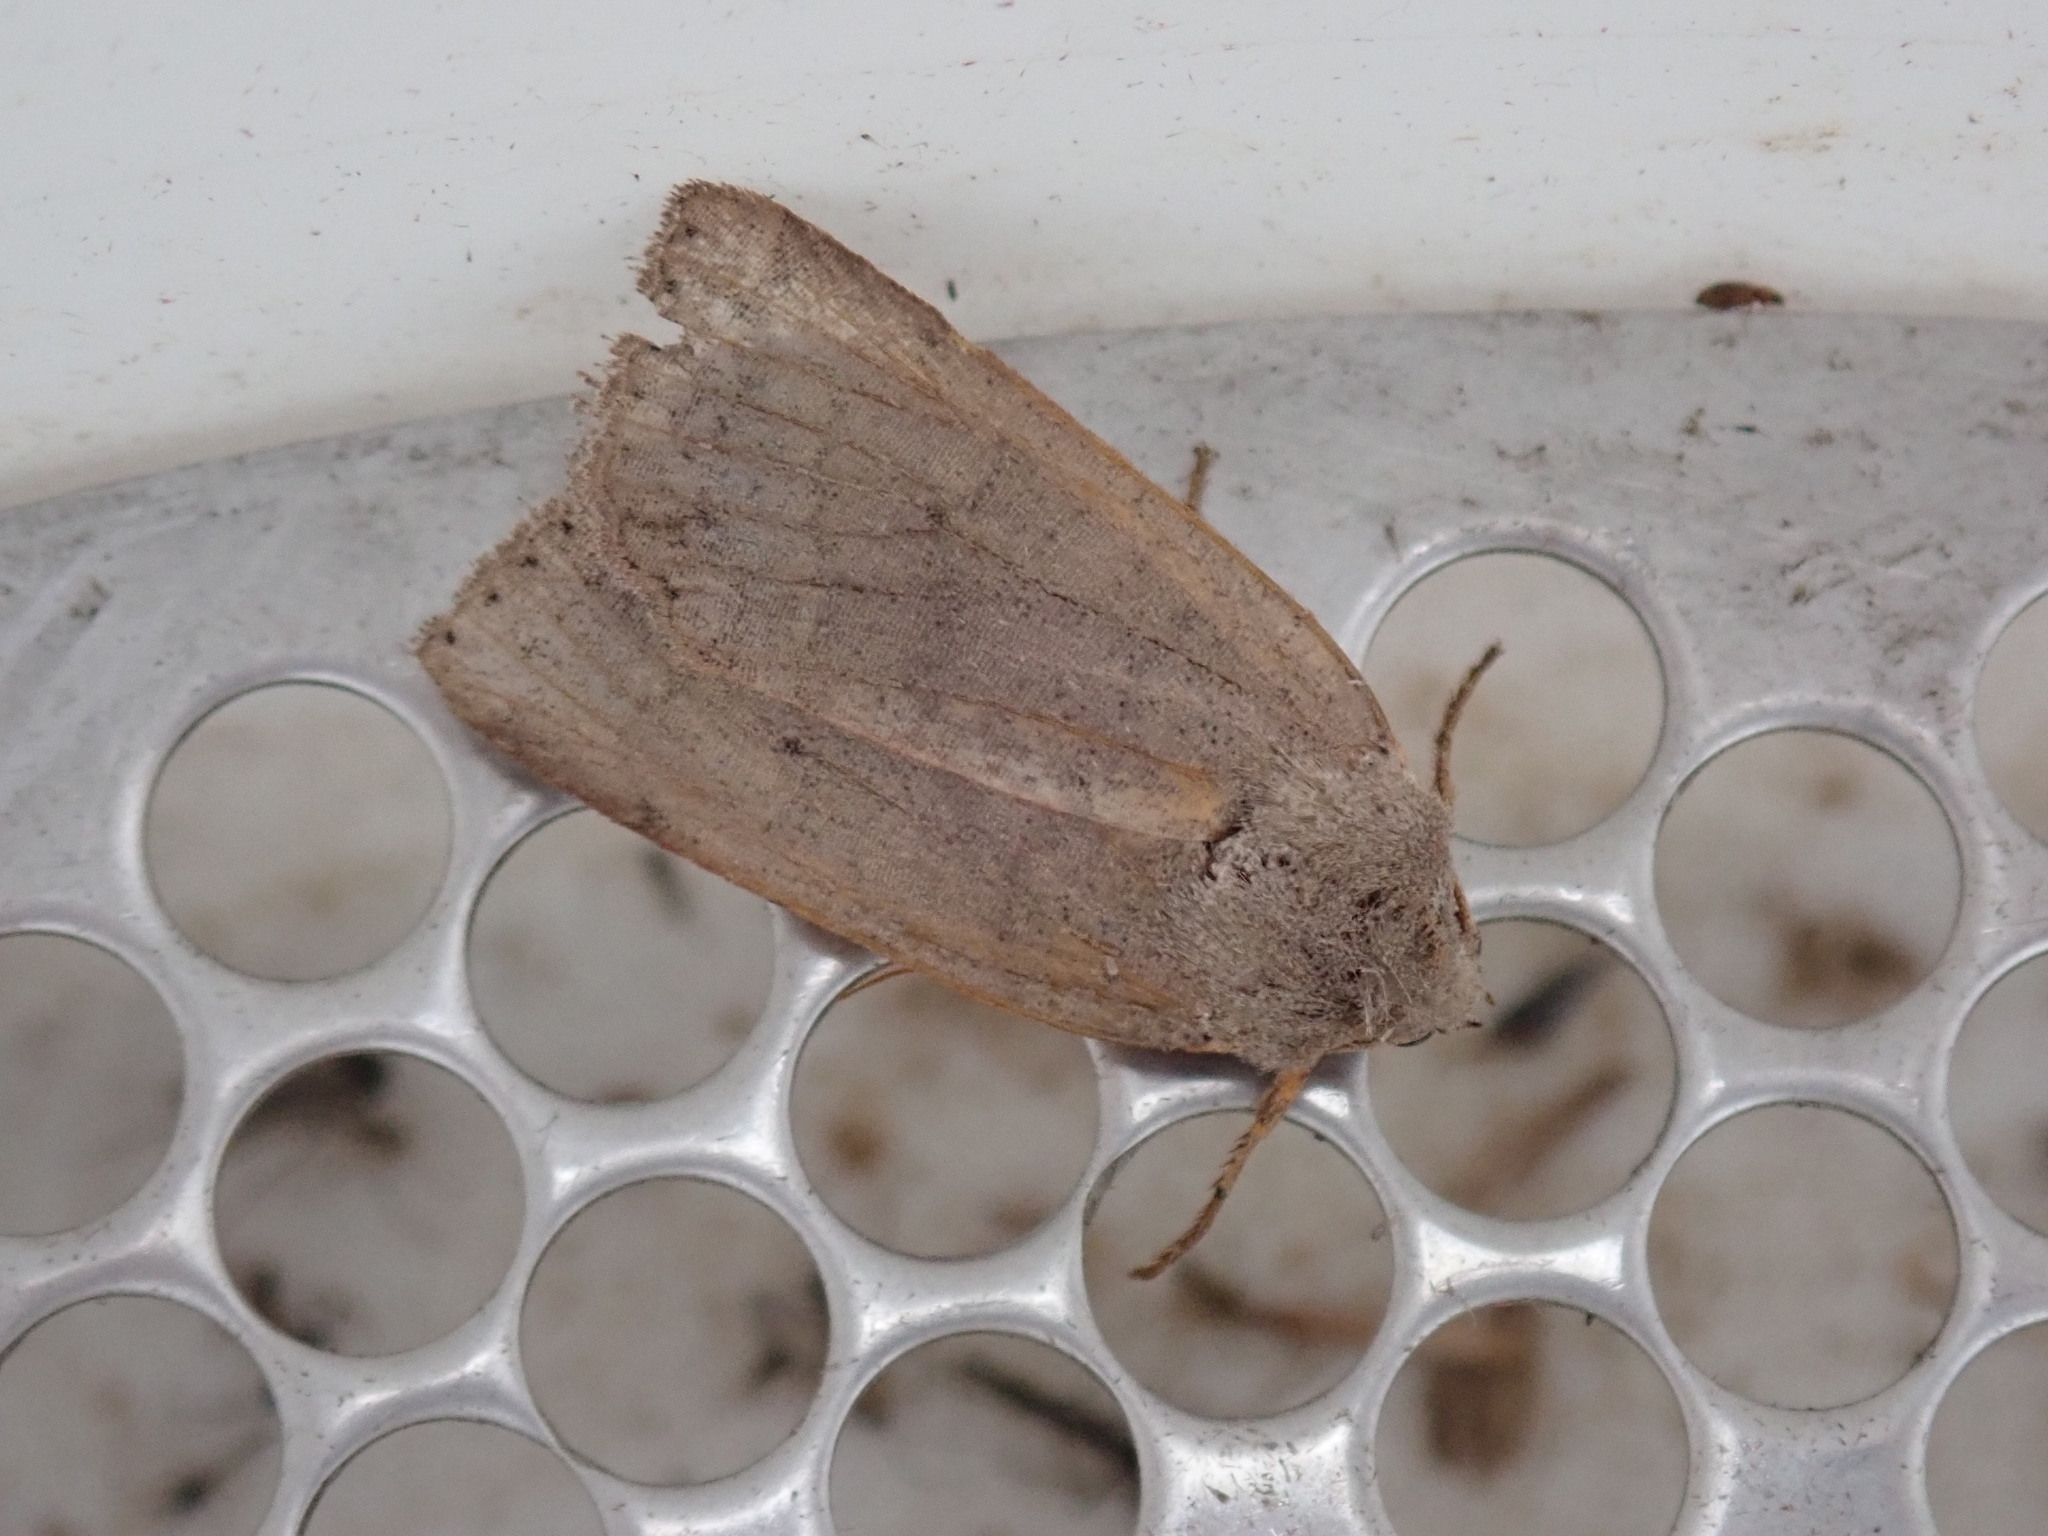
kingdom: Animalia
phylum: Arthropoda
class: Insecta
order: Lepidoptera
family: Noctuidae
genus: Chaetaglaea
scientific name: Chaetaglaea rhonda
